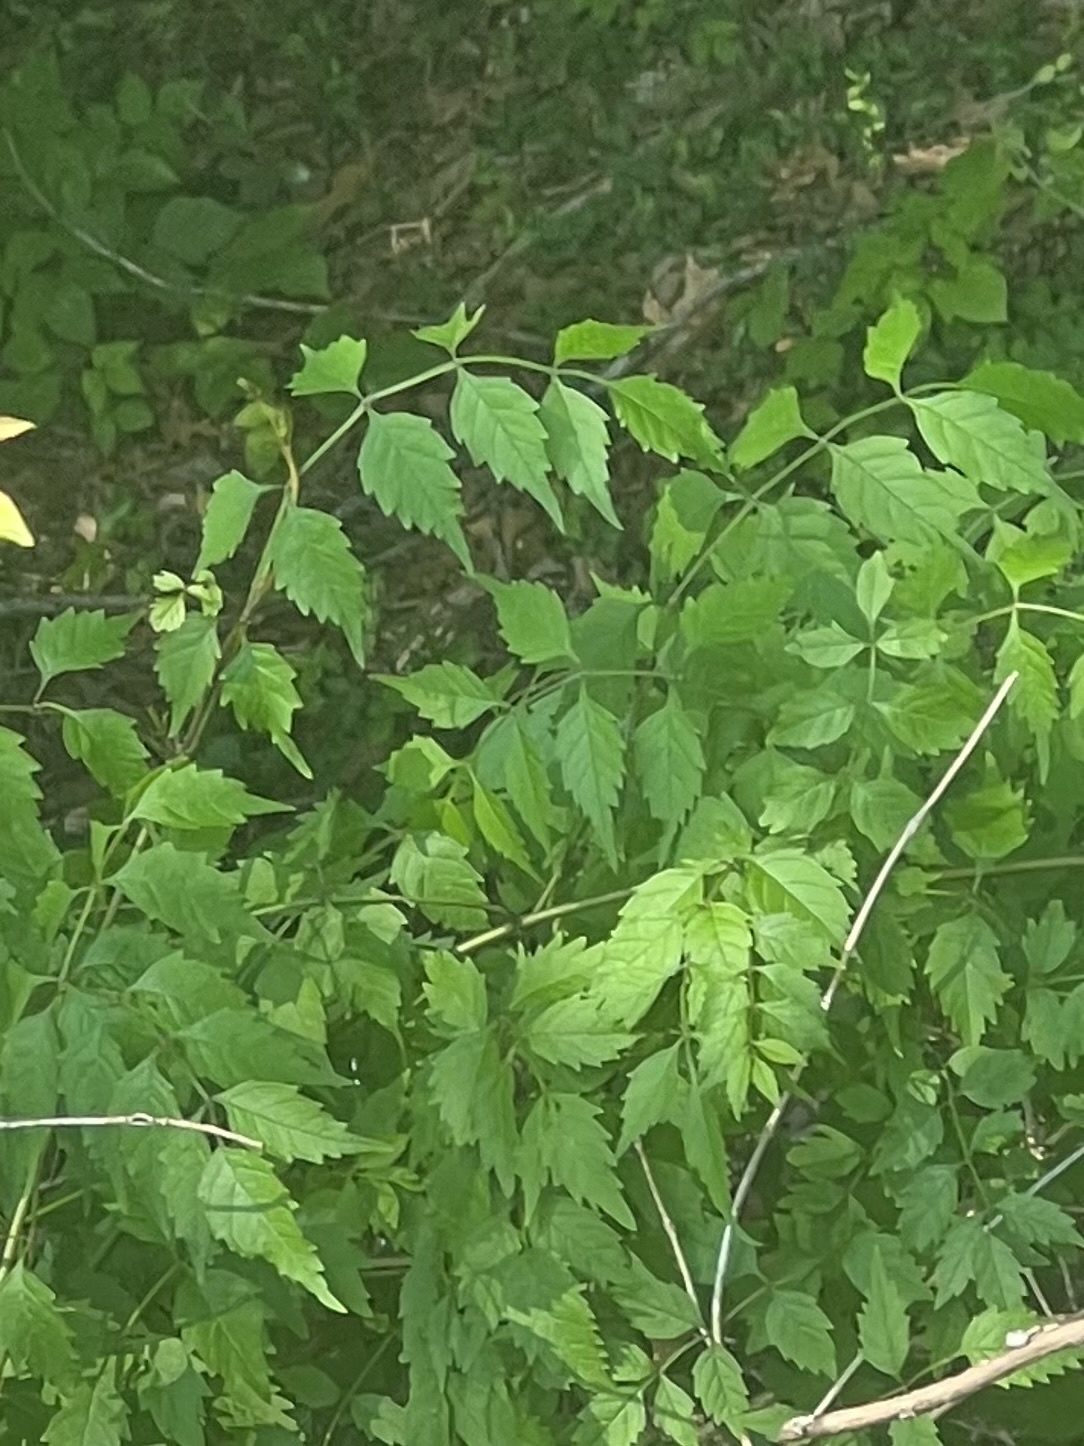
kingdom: Plantae
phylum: Tracheophyta
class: Magnoliopsida
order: Lamiales
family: Bignoniaceae
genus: Campsis
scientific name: Campsis radicans
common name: Trumpet-creeper
